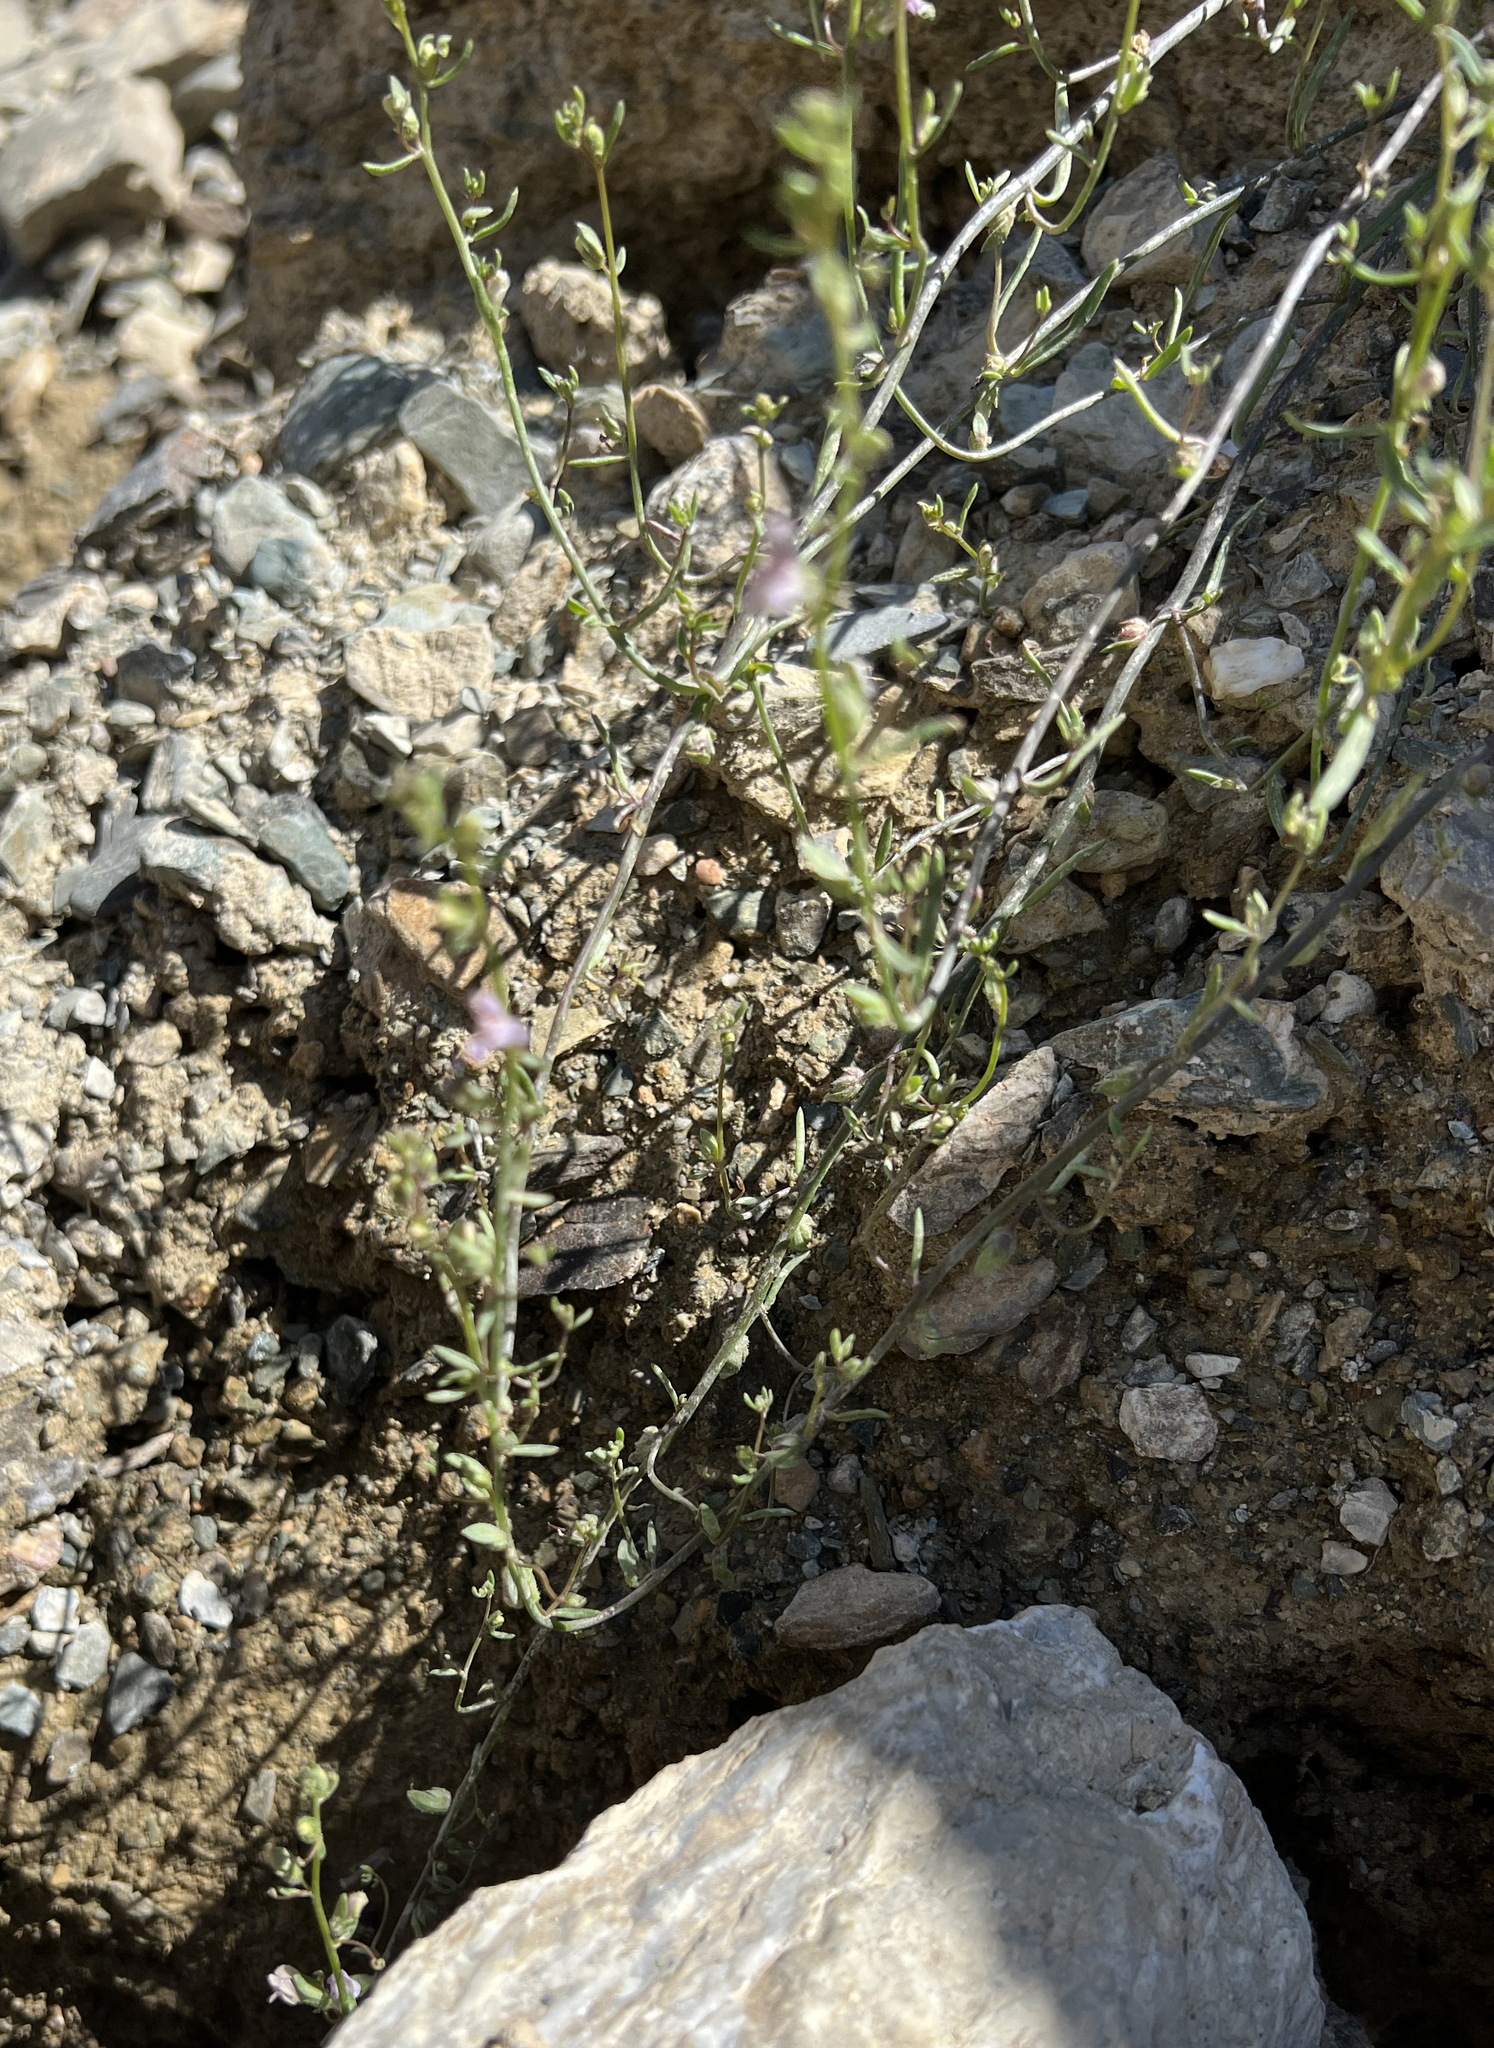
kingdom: Plantae
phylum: Tracheophyta
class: Magnoliopsida
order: Lamiales
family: Plantaginaceae
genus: Sairocarpus
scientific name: Sairocarpus kingii
